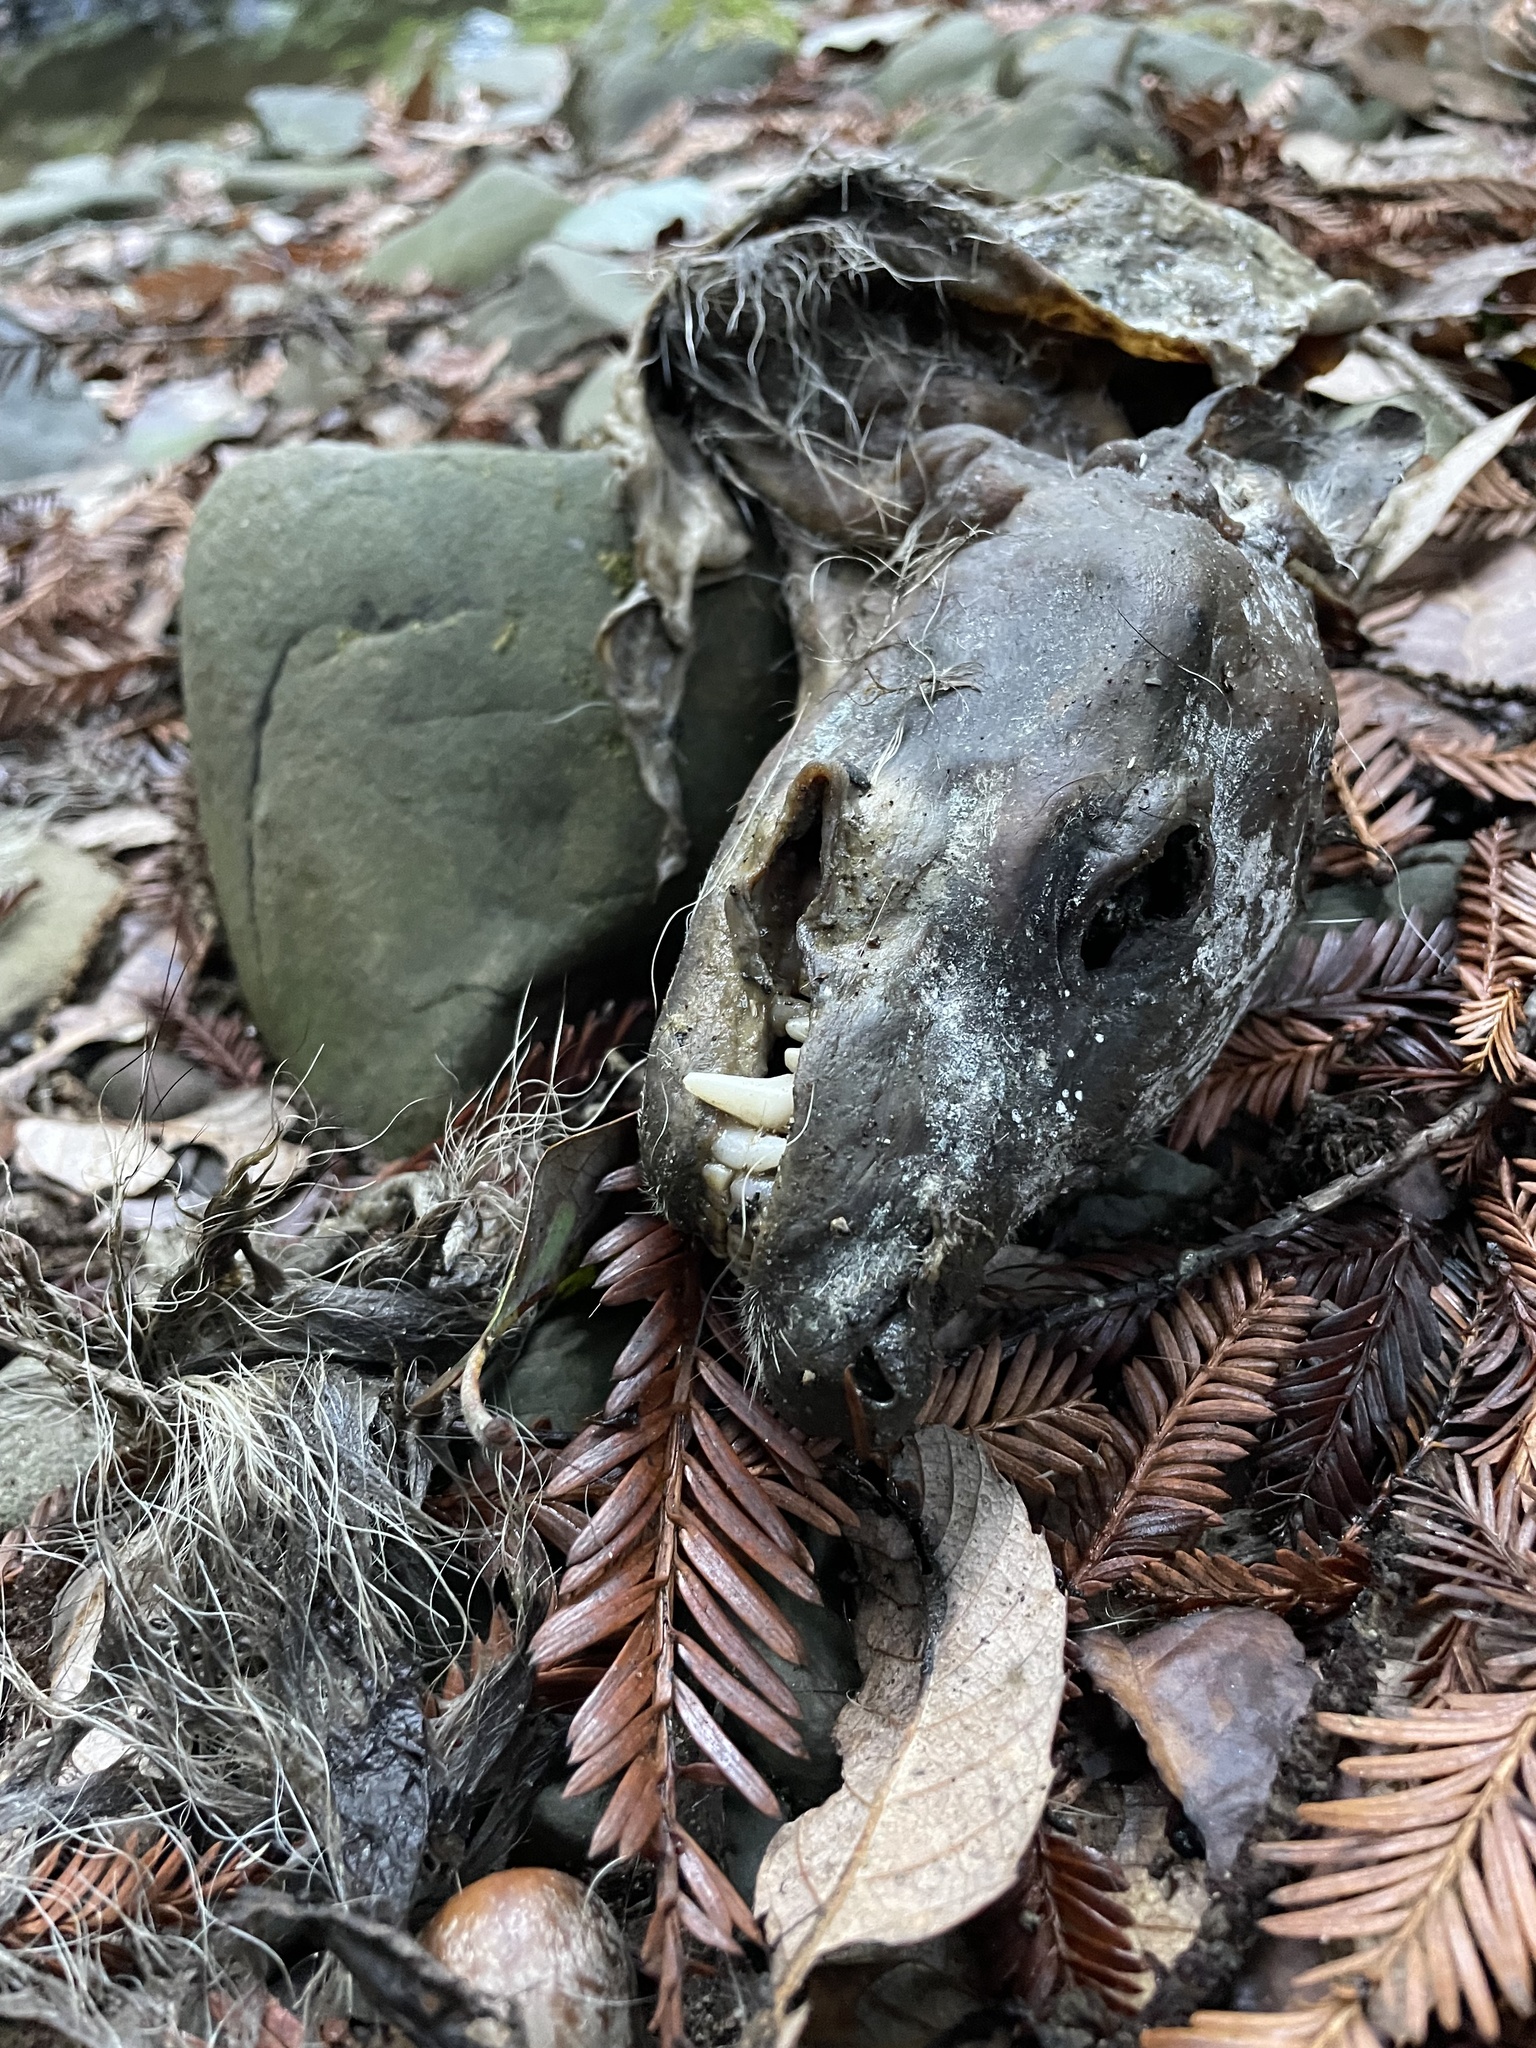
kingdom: Animalia
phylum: Chordata
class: Mammalia
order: Carnivora
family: Procyonidae
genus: Procyon
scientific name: Procyon lotor
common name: Raccoon
